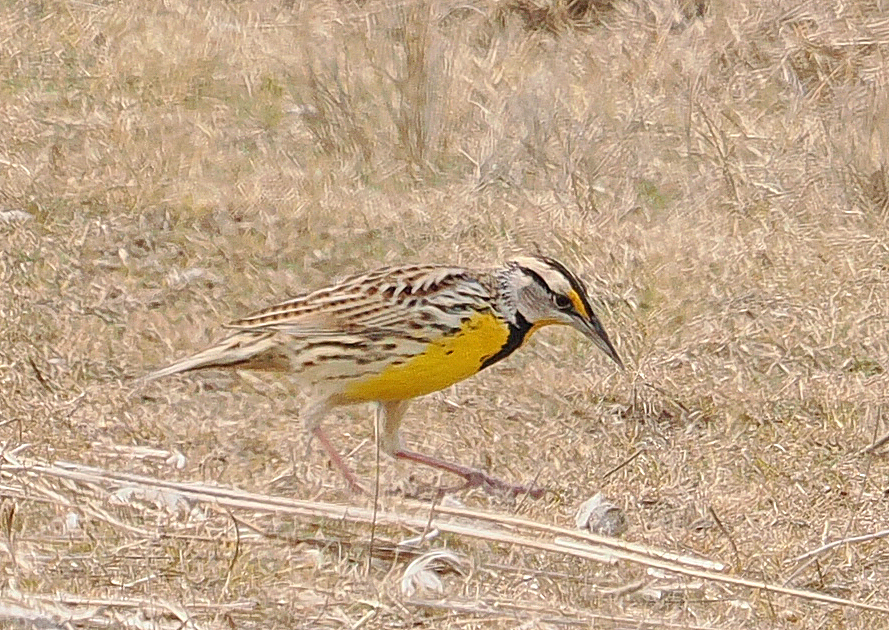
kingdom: Animalia
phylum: Chordata
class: Aves
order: Passeriformes
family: Icteridae
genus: Sturnella
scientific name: Sturnella magna
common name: Eastern meadowlark
